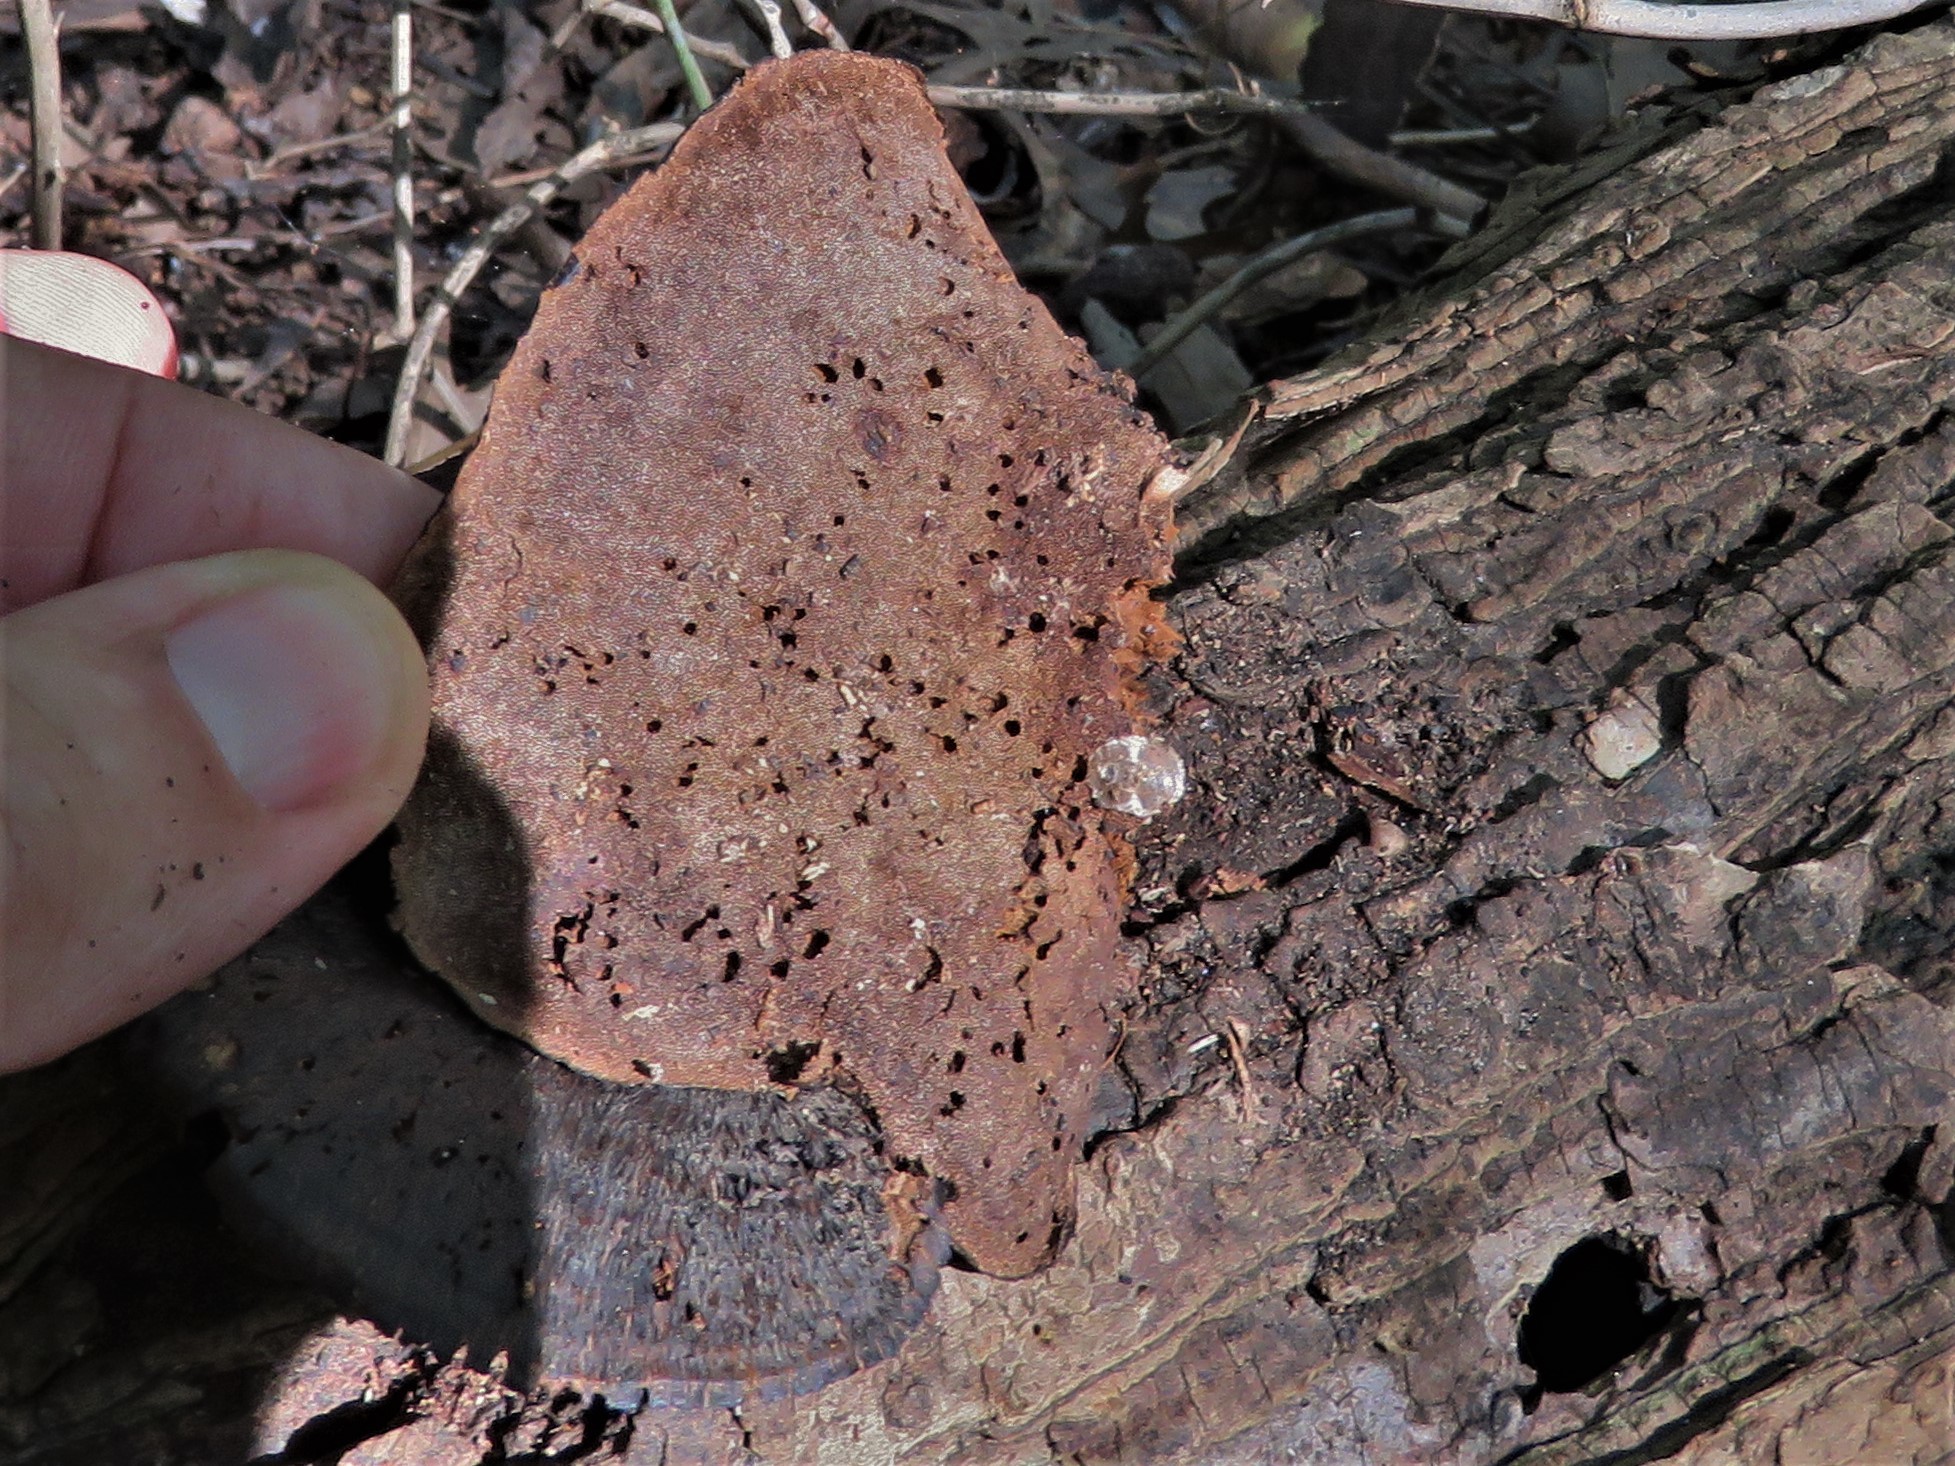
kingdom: Fungi
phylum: Basidiomycota
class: Agaricomycetes
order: Polyporales
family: Cerrenaceae
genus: Cerrena
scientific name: Cerrena hydnoides
